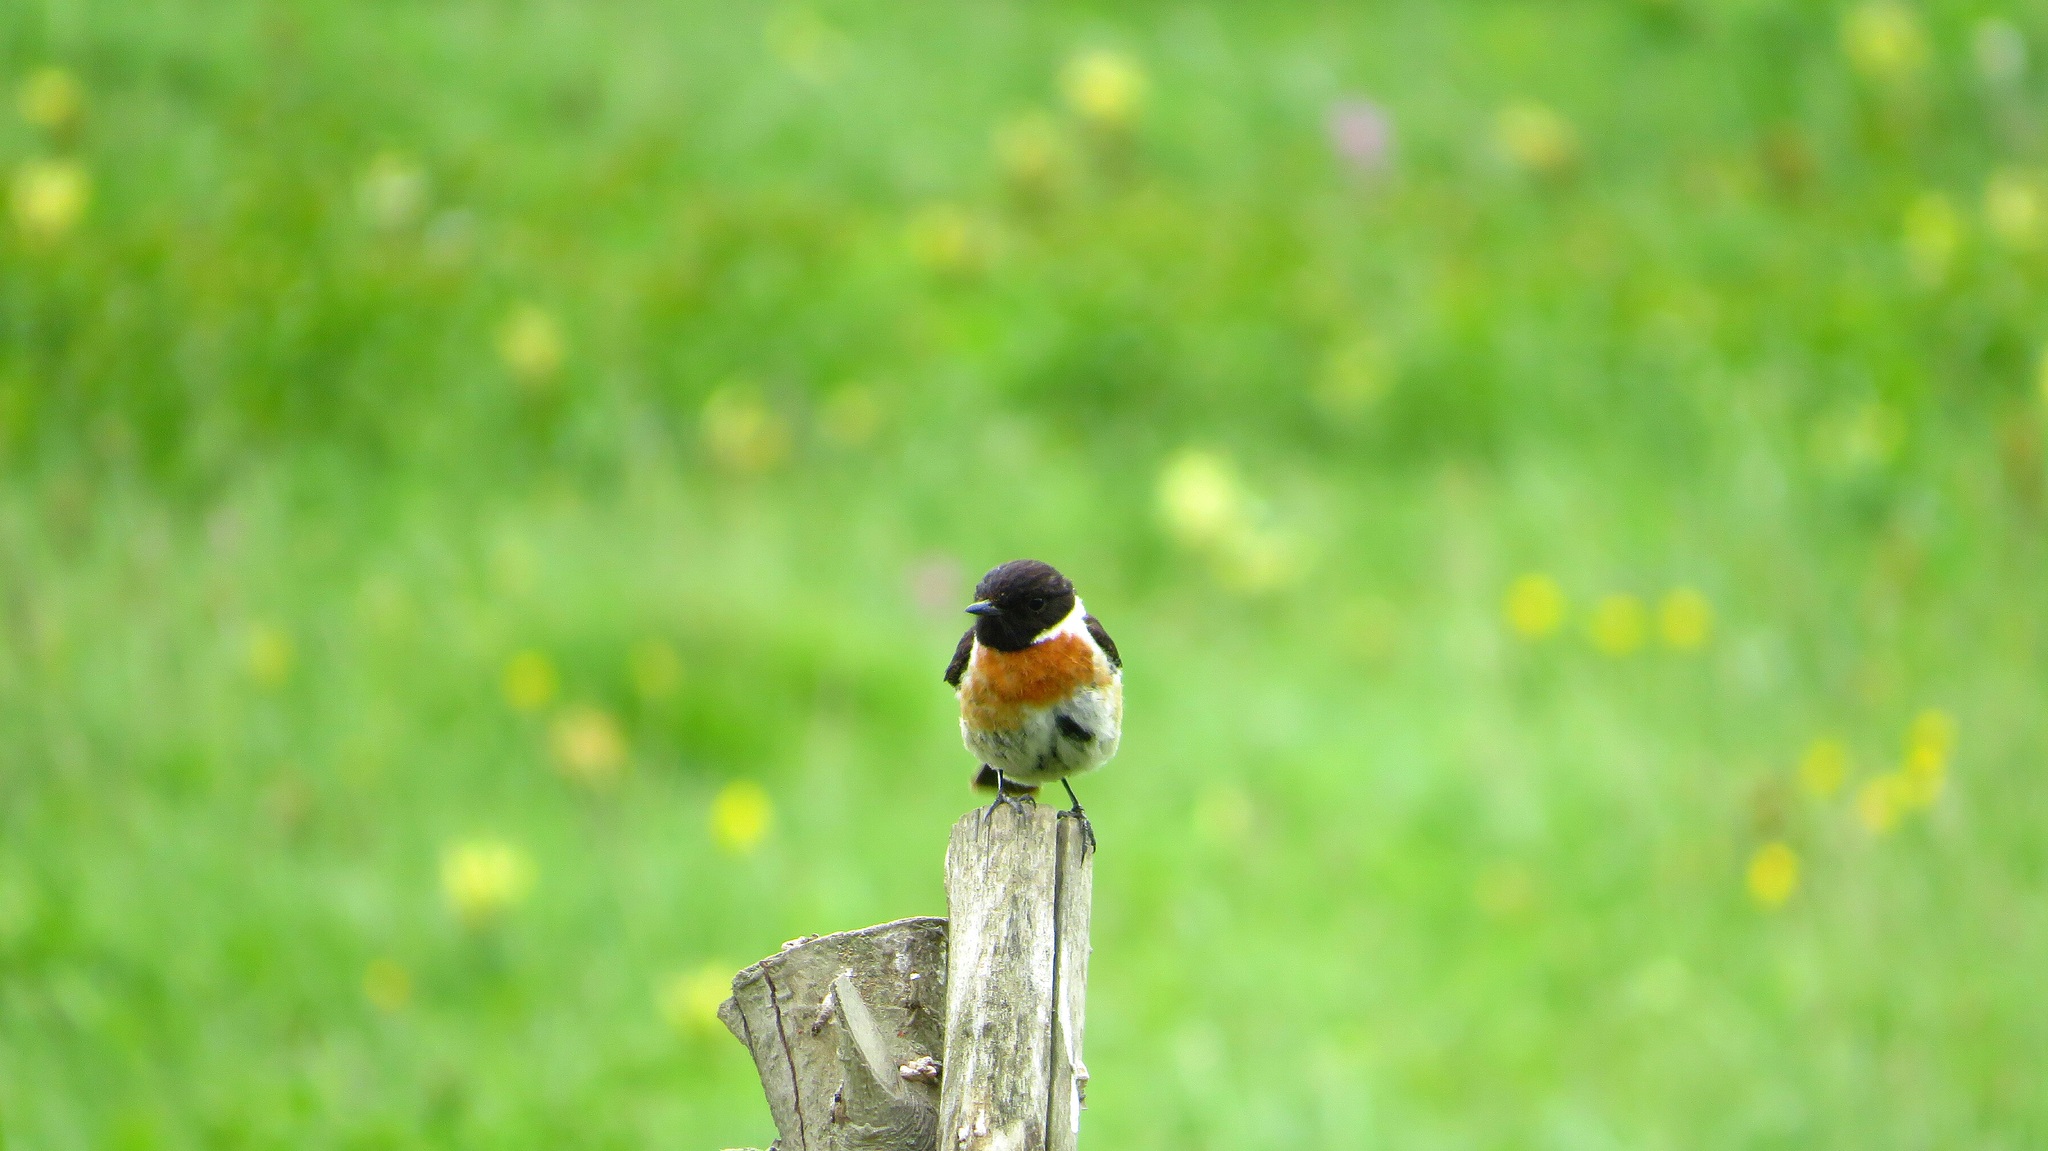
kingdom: Animalia
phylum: Chordata
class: Aves
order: Passeriformes
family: Muscicapidae
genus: Saxicola
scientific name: Saxicola rubicola
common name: European stonechat
